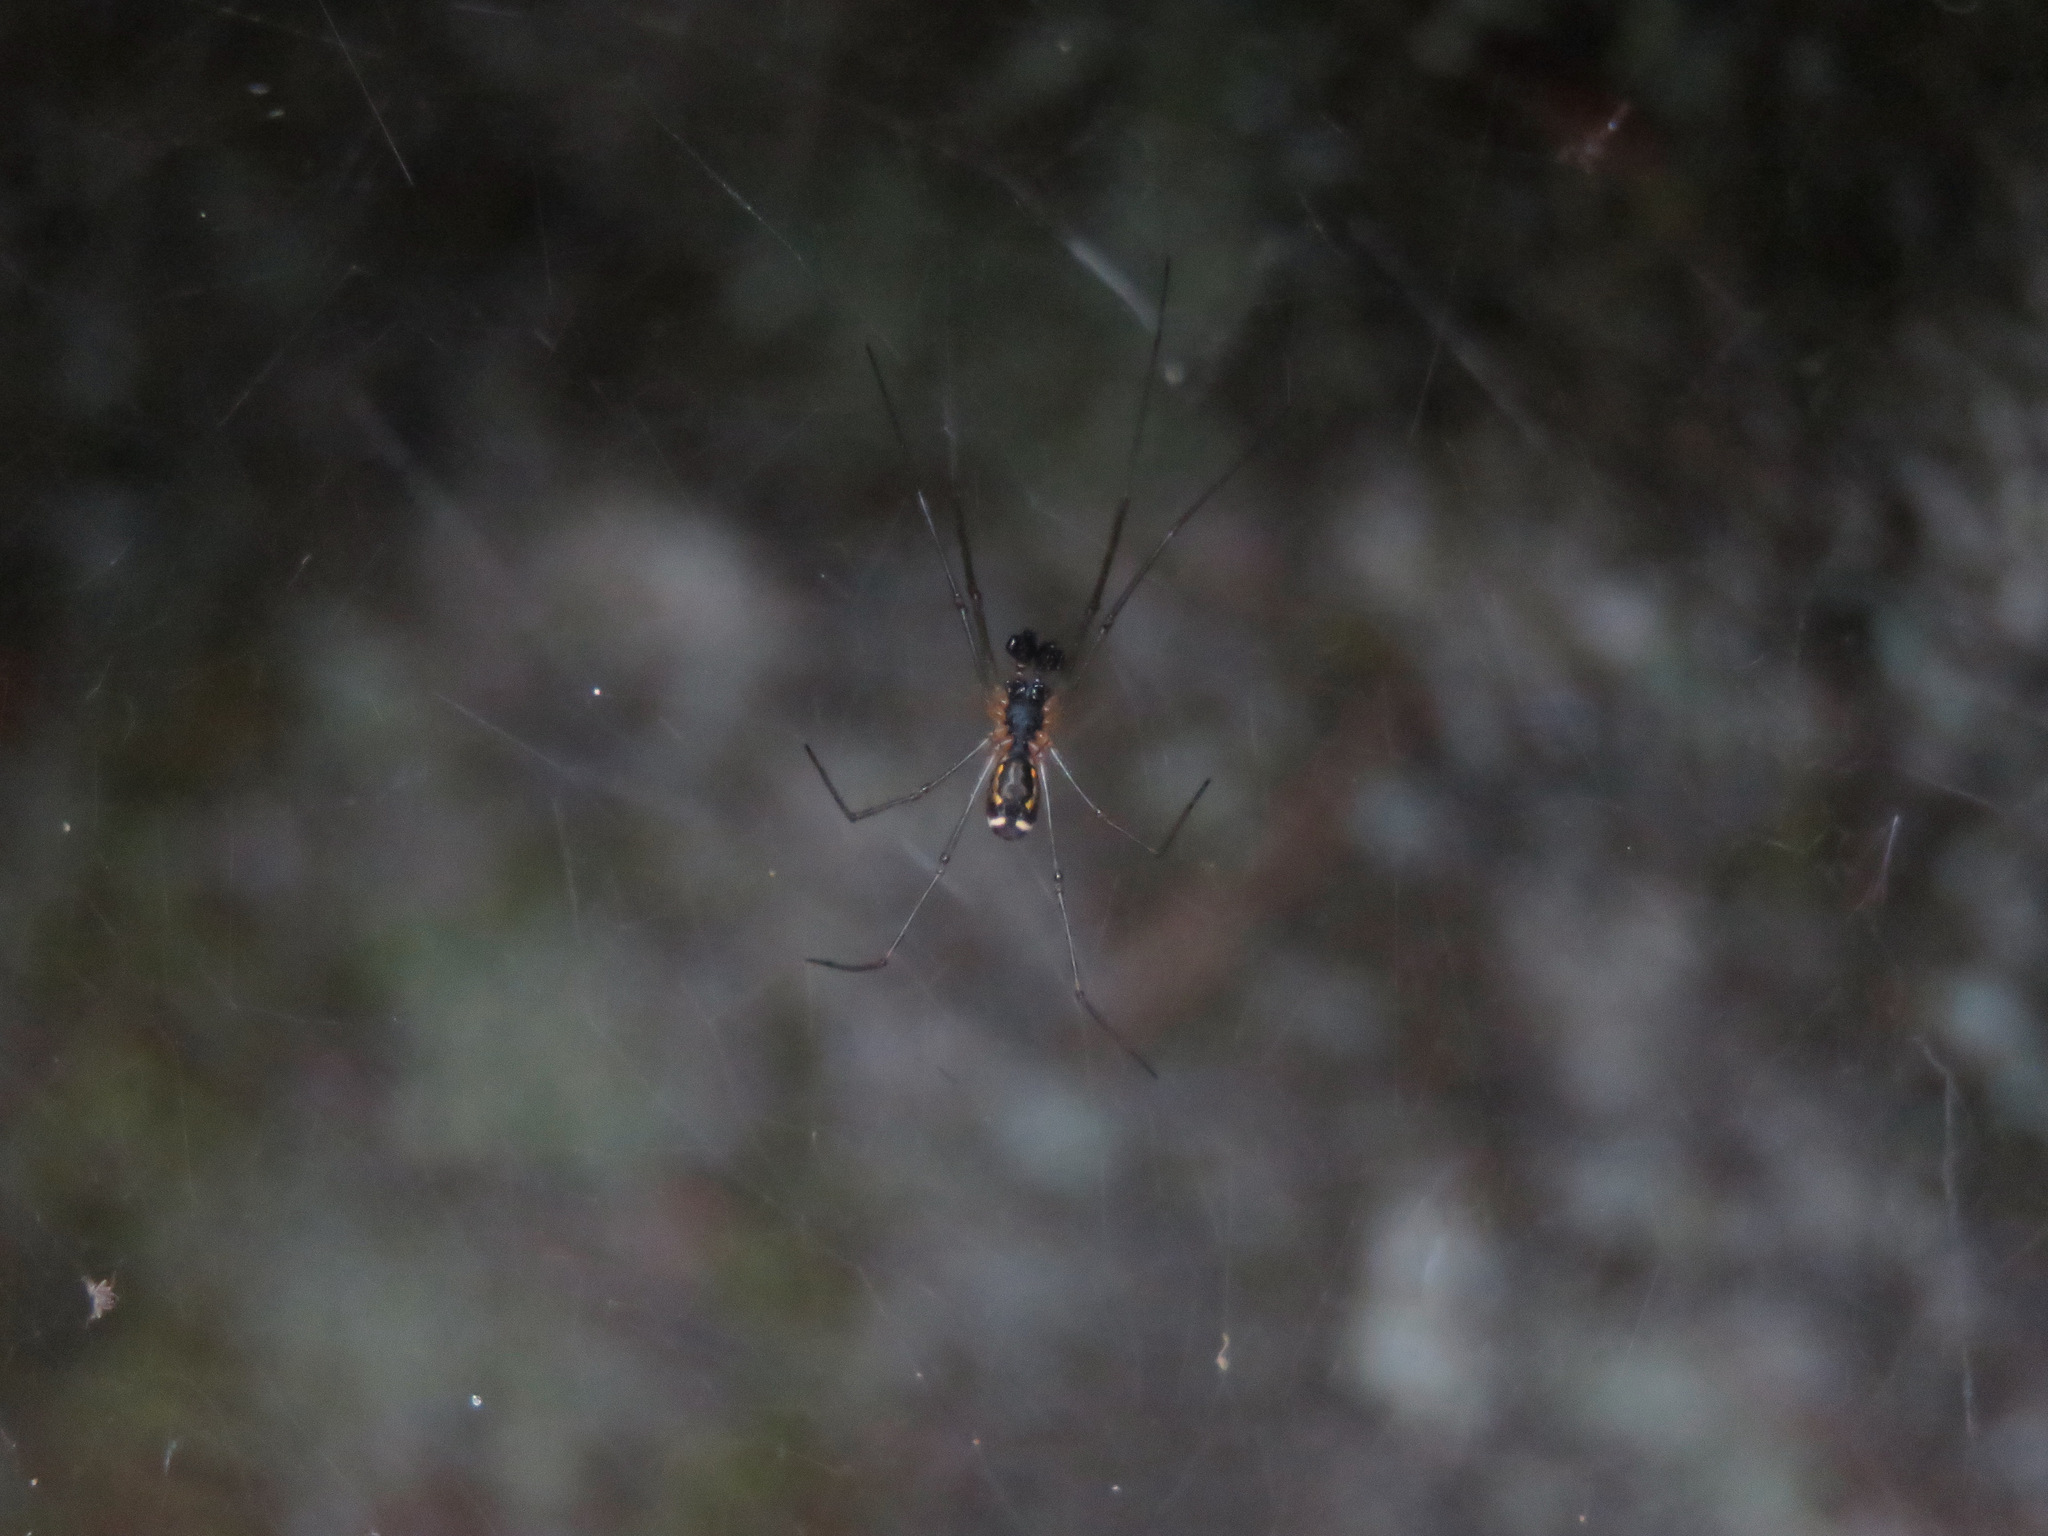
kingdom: Animalia
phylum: Arthropoda
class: Arachnida
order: Araneae
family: Linyphiidae
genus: Neriene
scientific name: Neriene radiata
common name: Filmy dome spider
